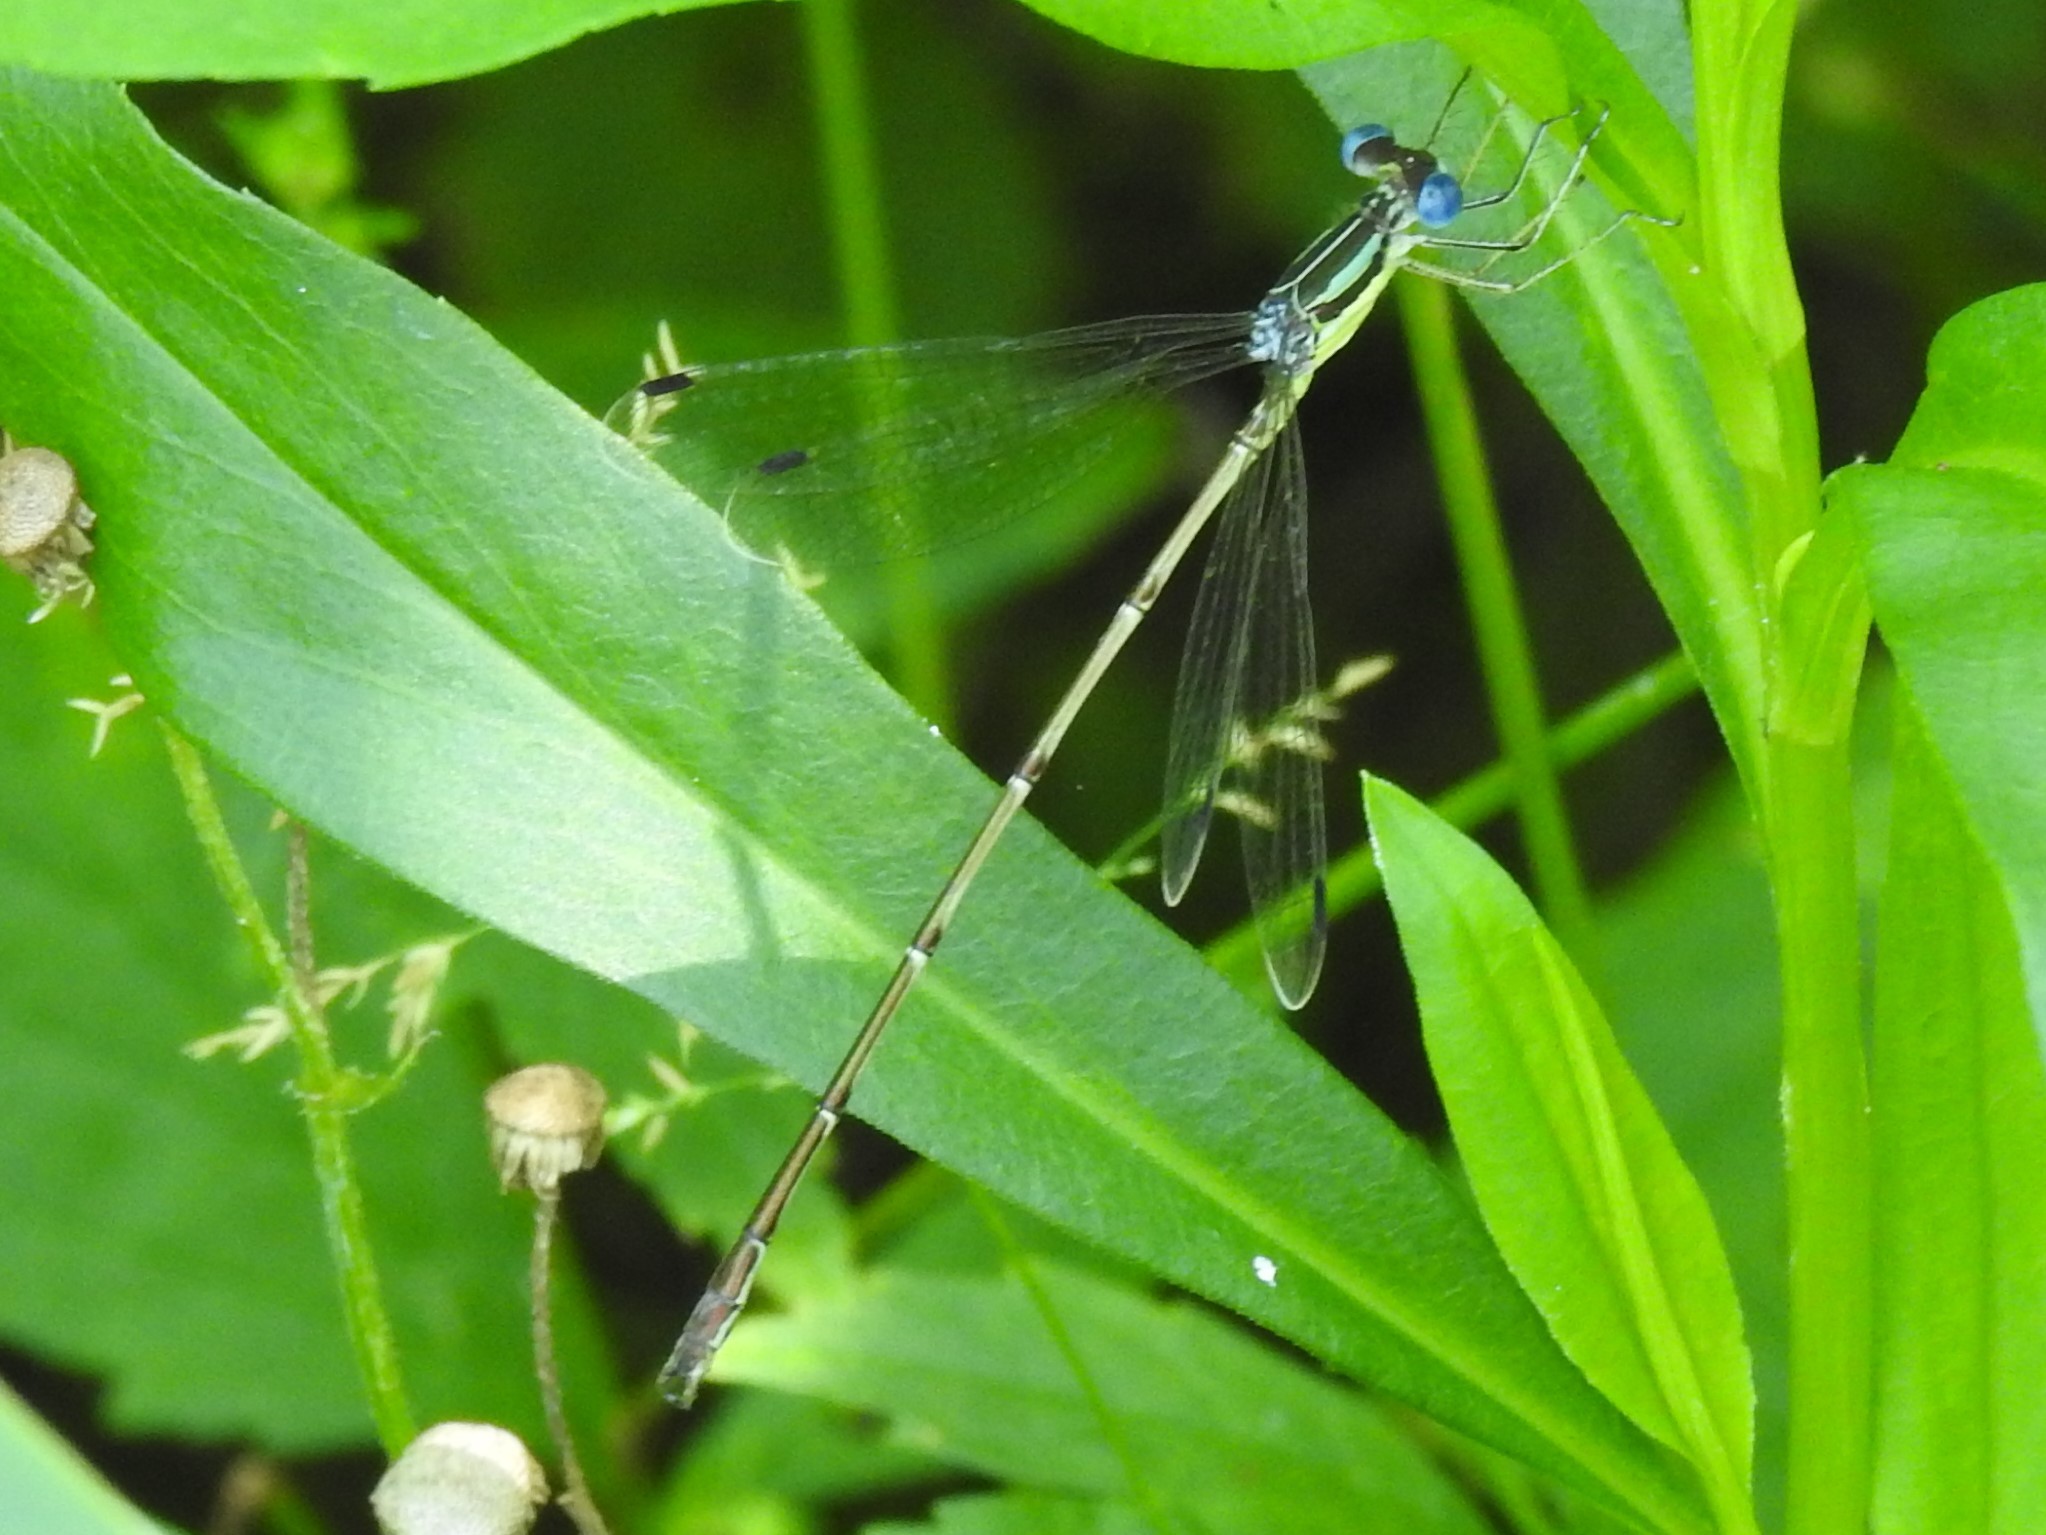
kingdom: Animalia
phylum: Arthropoda
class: Insecta
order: Odonata
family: Lestidae
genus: Lestes
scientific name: Lestes rectangularis
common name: Slender spreadwing
